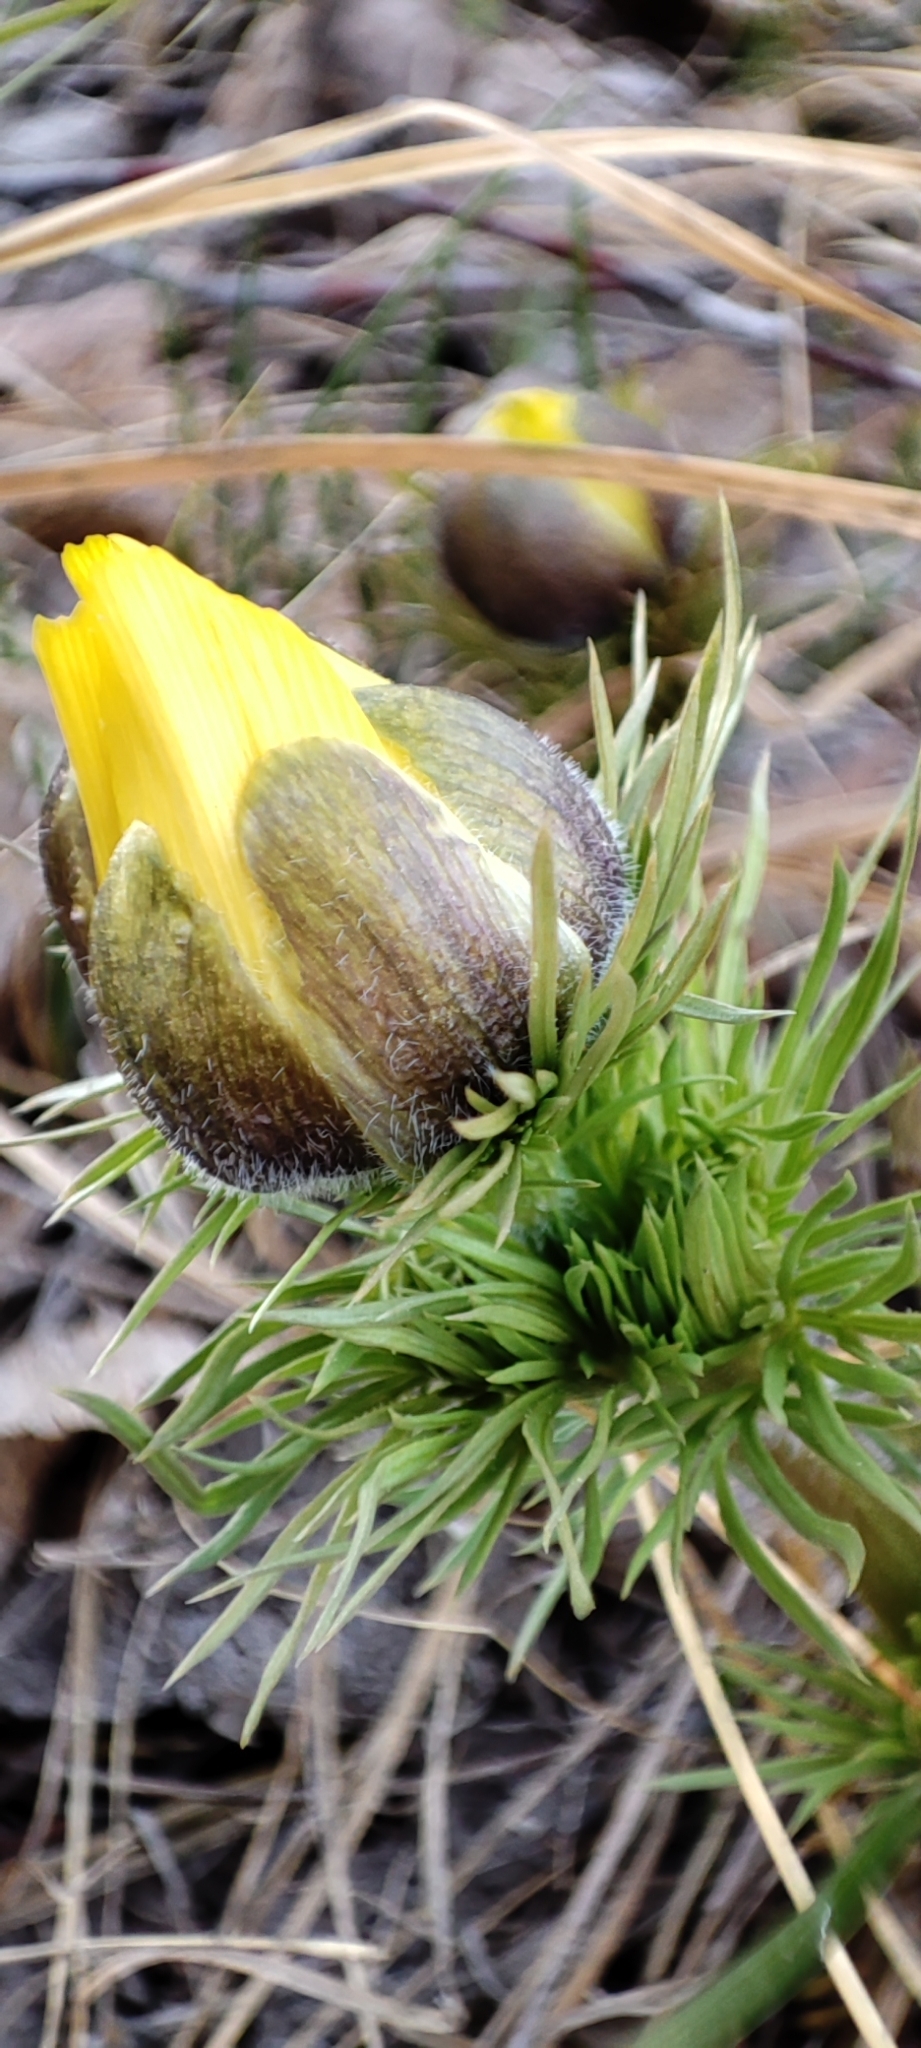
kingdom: Plantae
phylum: Tracheophyta
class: Magnoliopsida
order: Ranunculales
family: Ranunculaceae
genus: Adonis
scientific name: Adonis vernalis
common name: Yellow pheasants-eye
